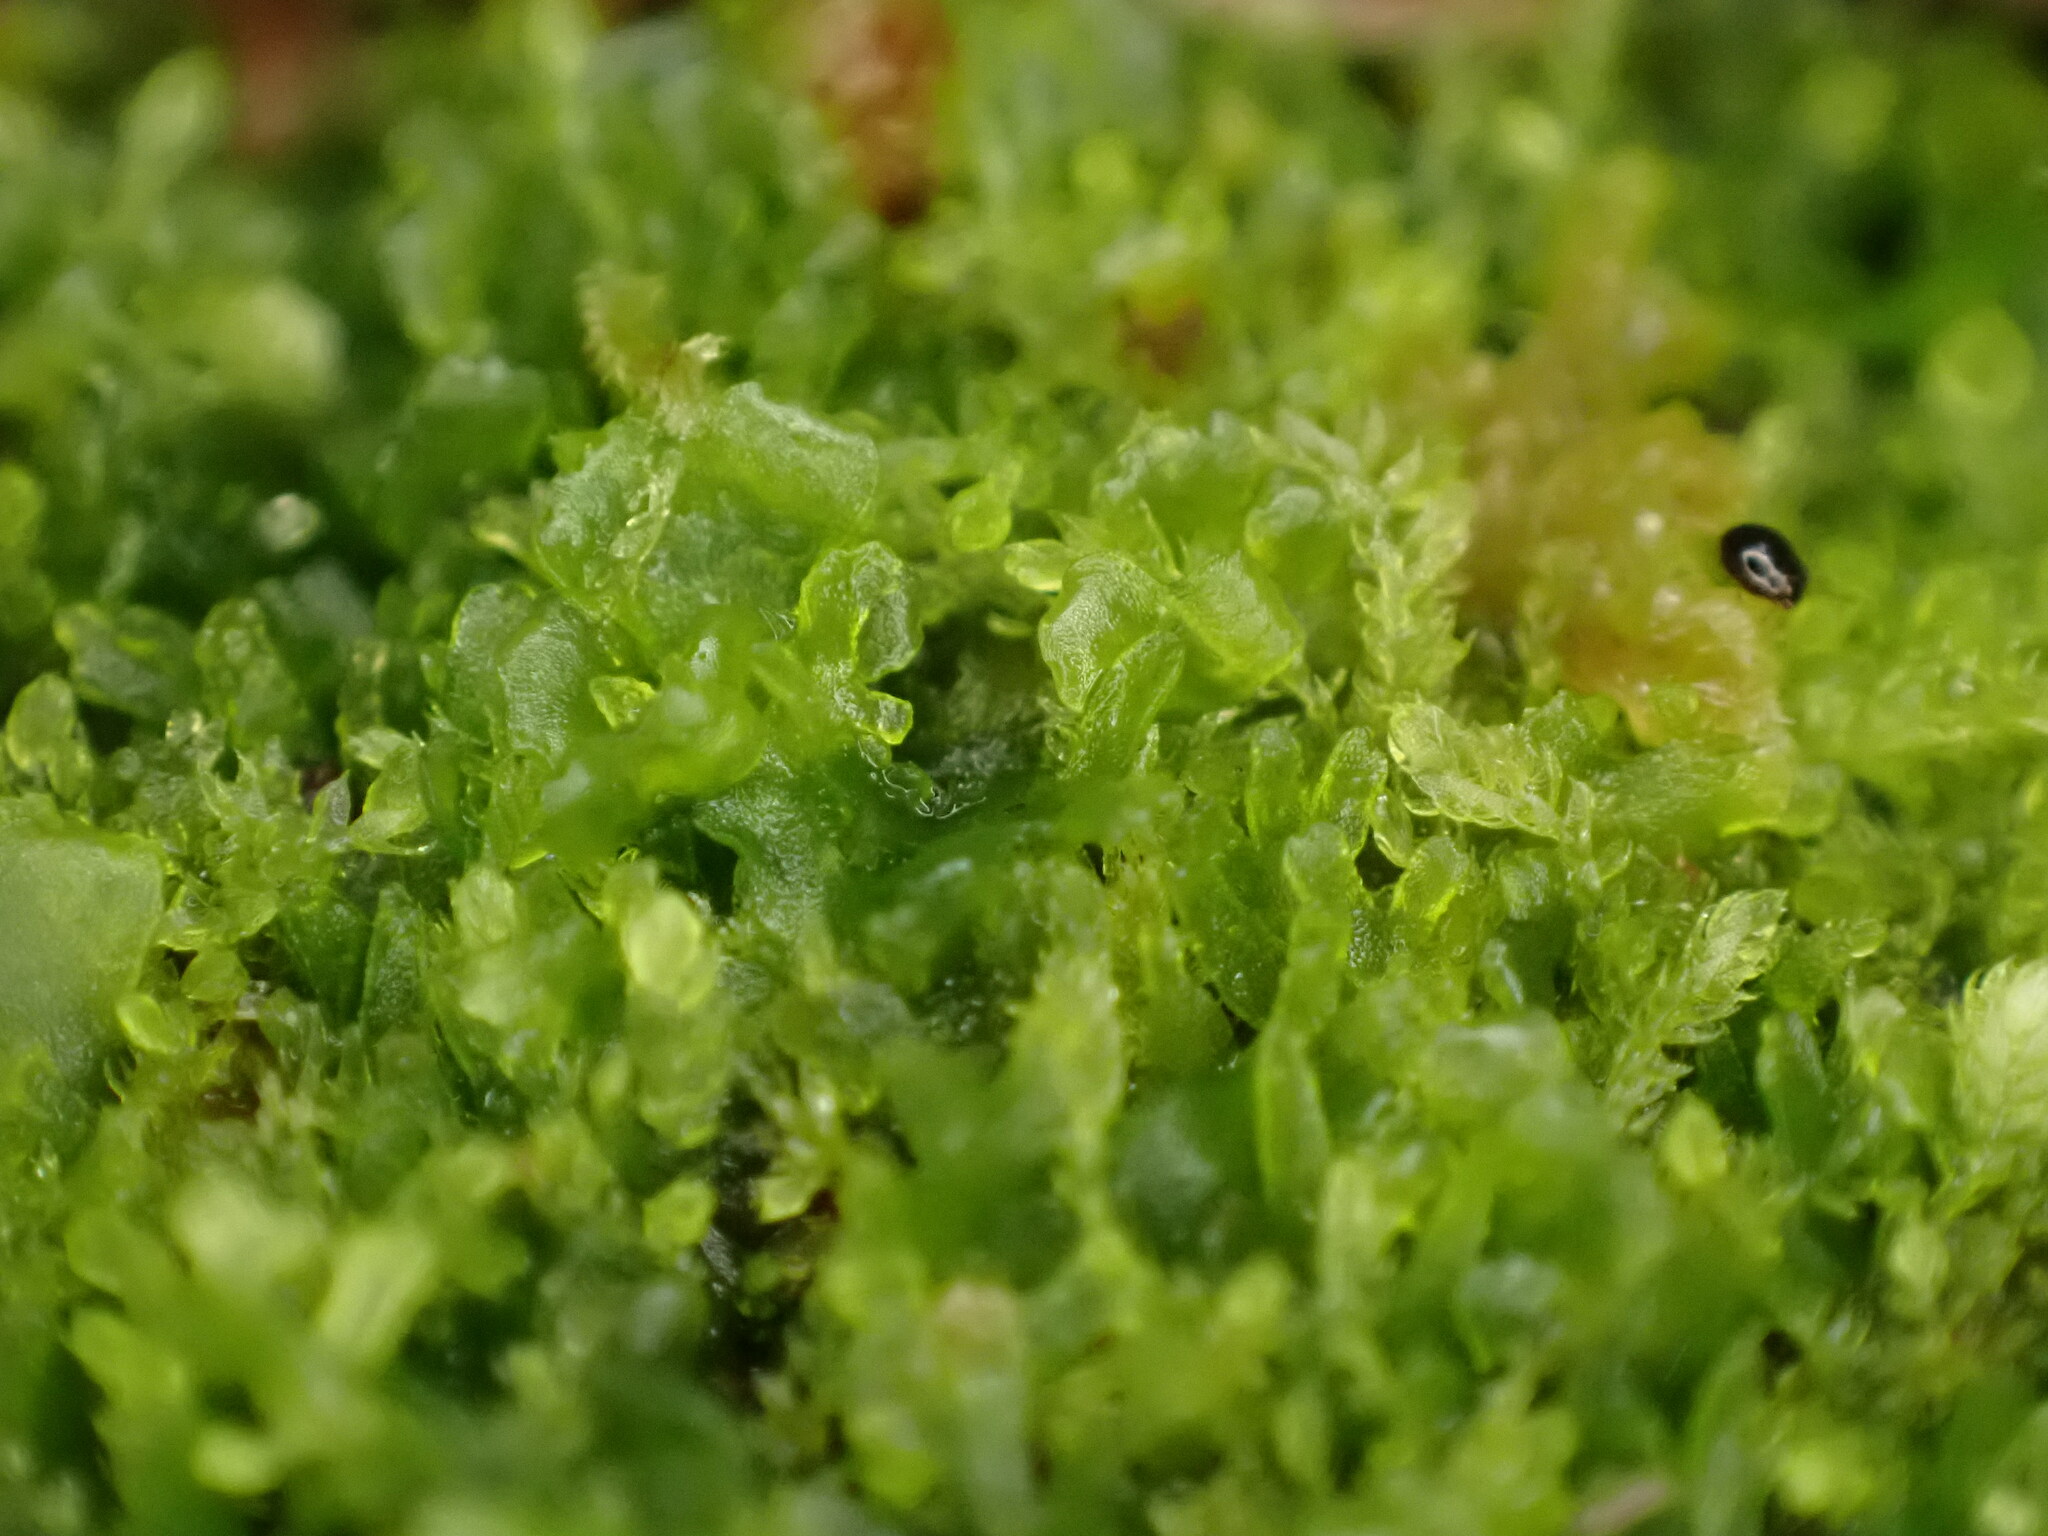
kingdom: Plantae
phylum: Marchantiophyta
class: Jungermanniopsida
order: Metzgeriales
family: Aneuraceae
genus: Riccardia
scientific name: Riccardia latifrons
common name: Bog germanderwort
